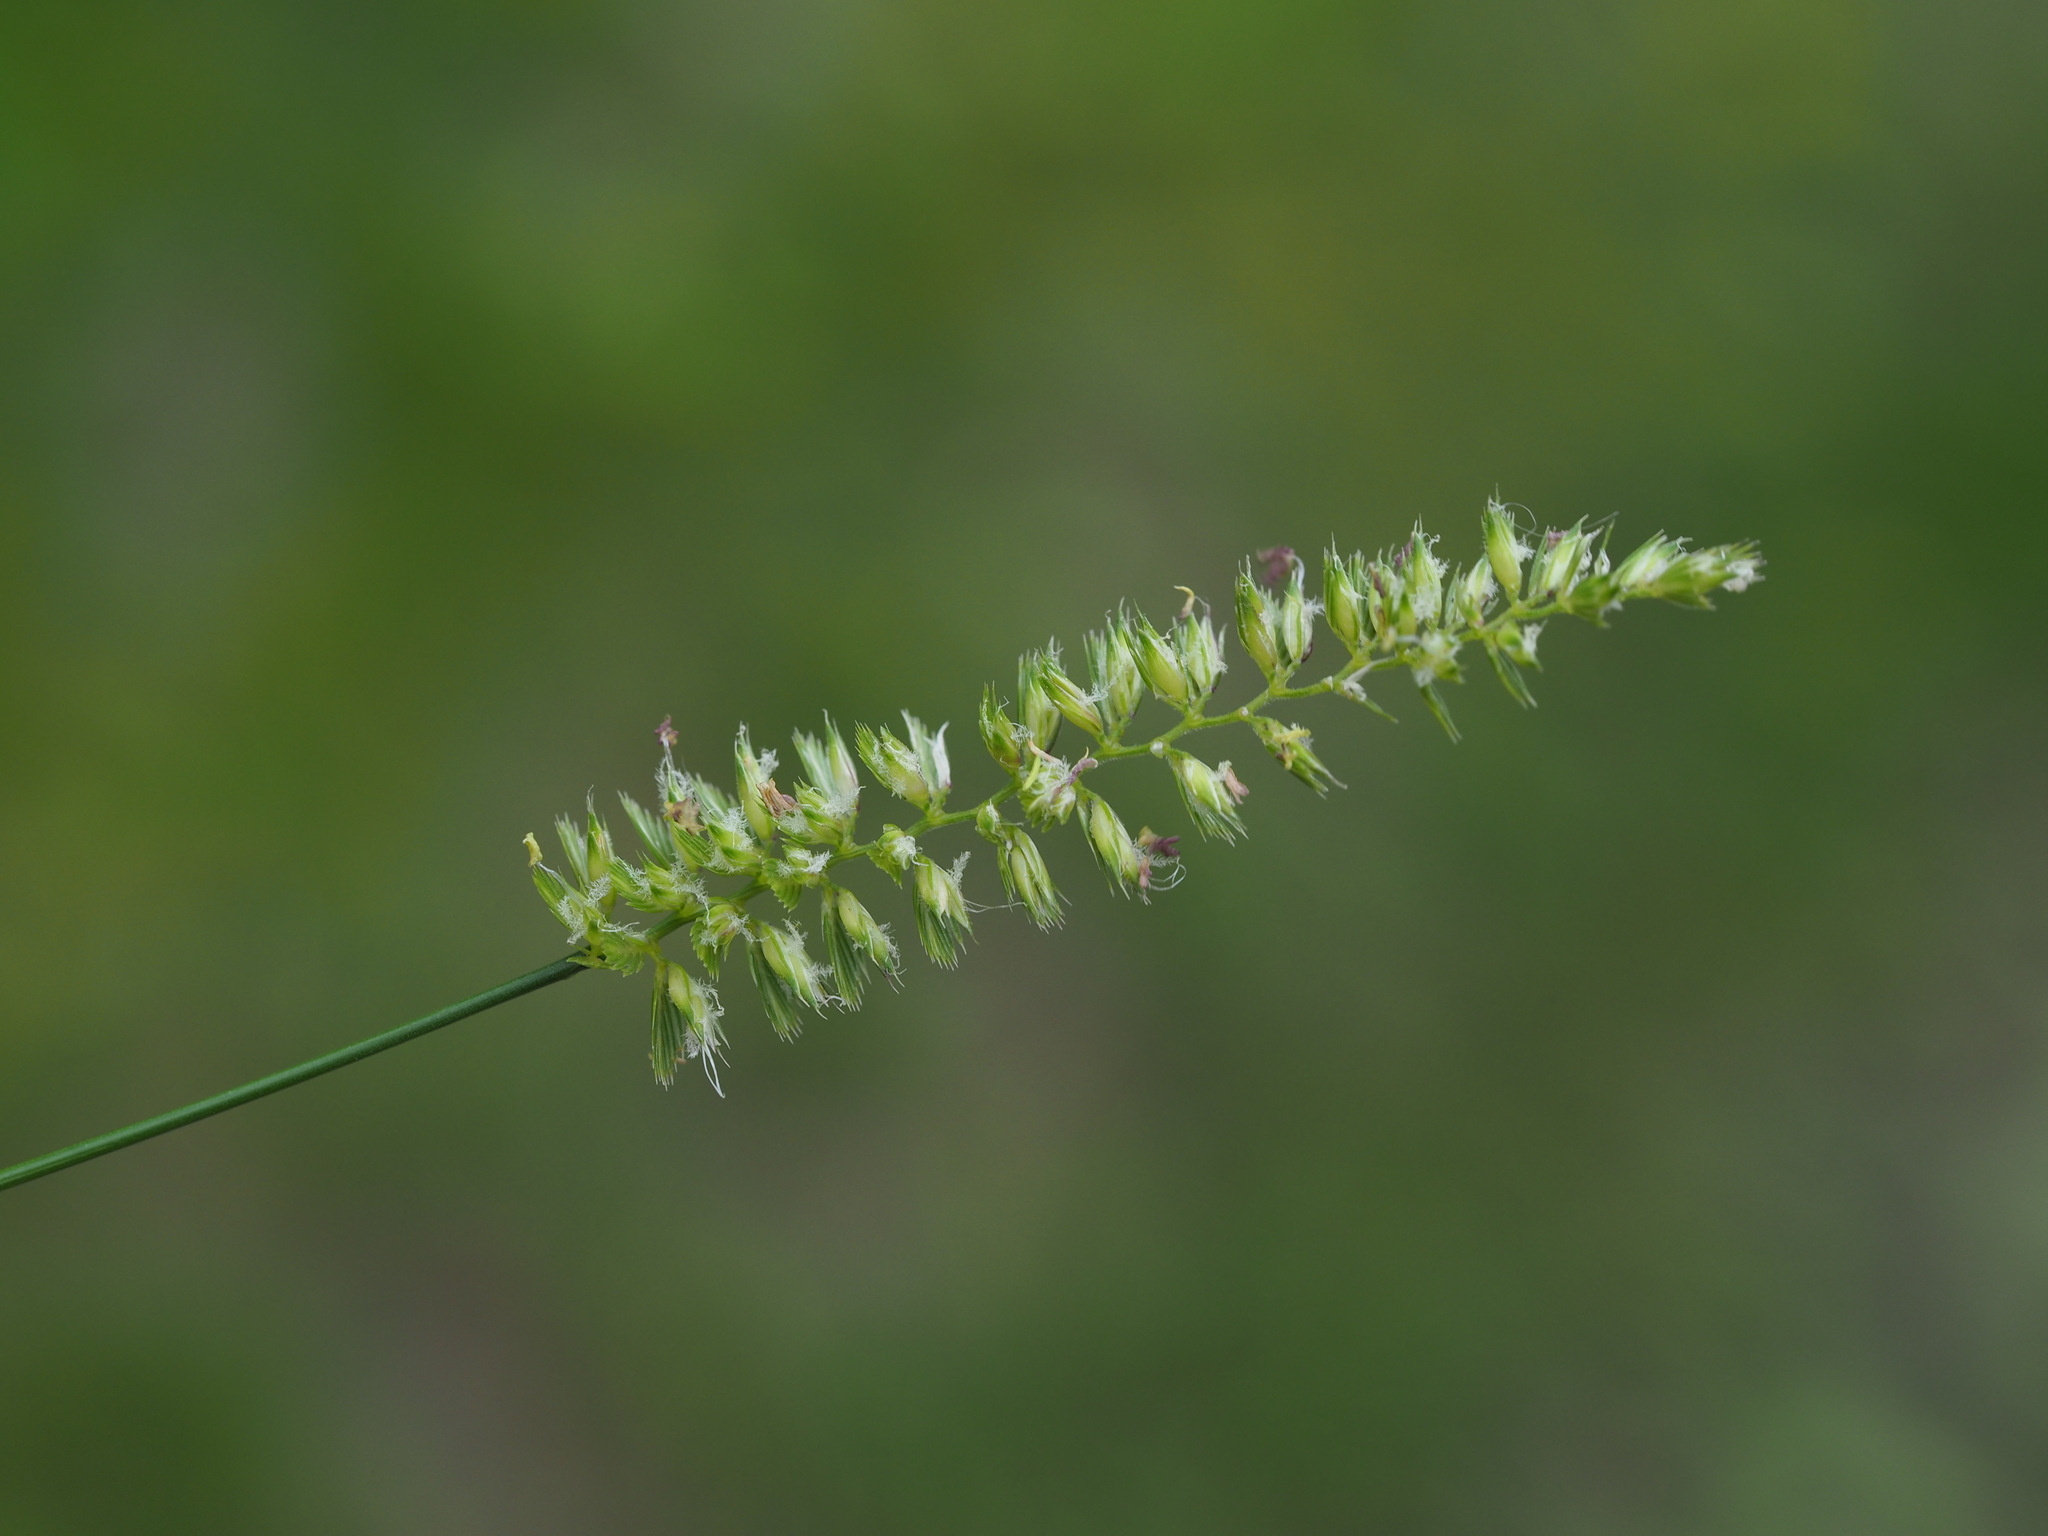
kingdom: Plantae
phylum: Tracheophyta
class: Liliopsida
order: Poales
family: Poaceae
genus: Cynosurus
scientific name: Cynosurus cristatus
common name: Crested dog's-tail
